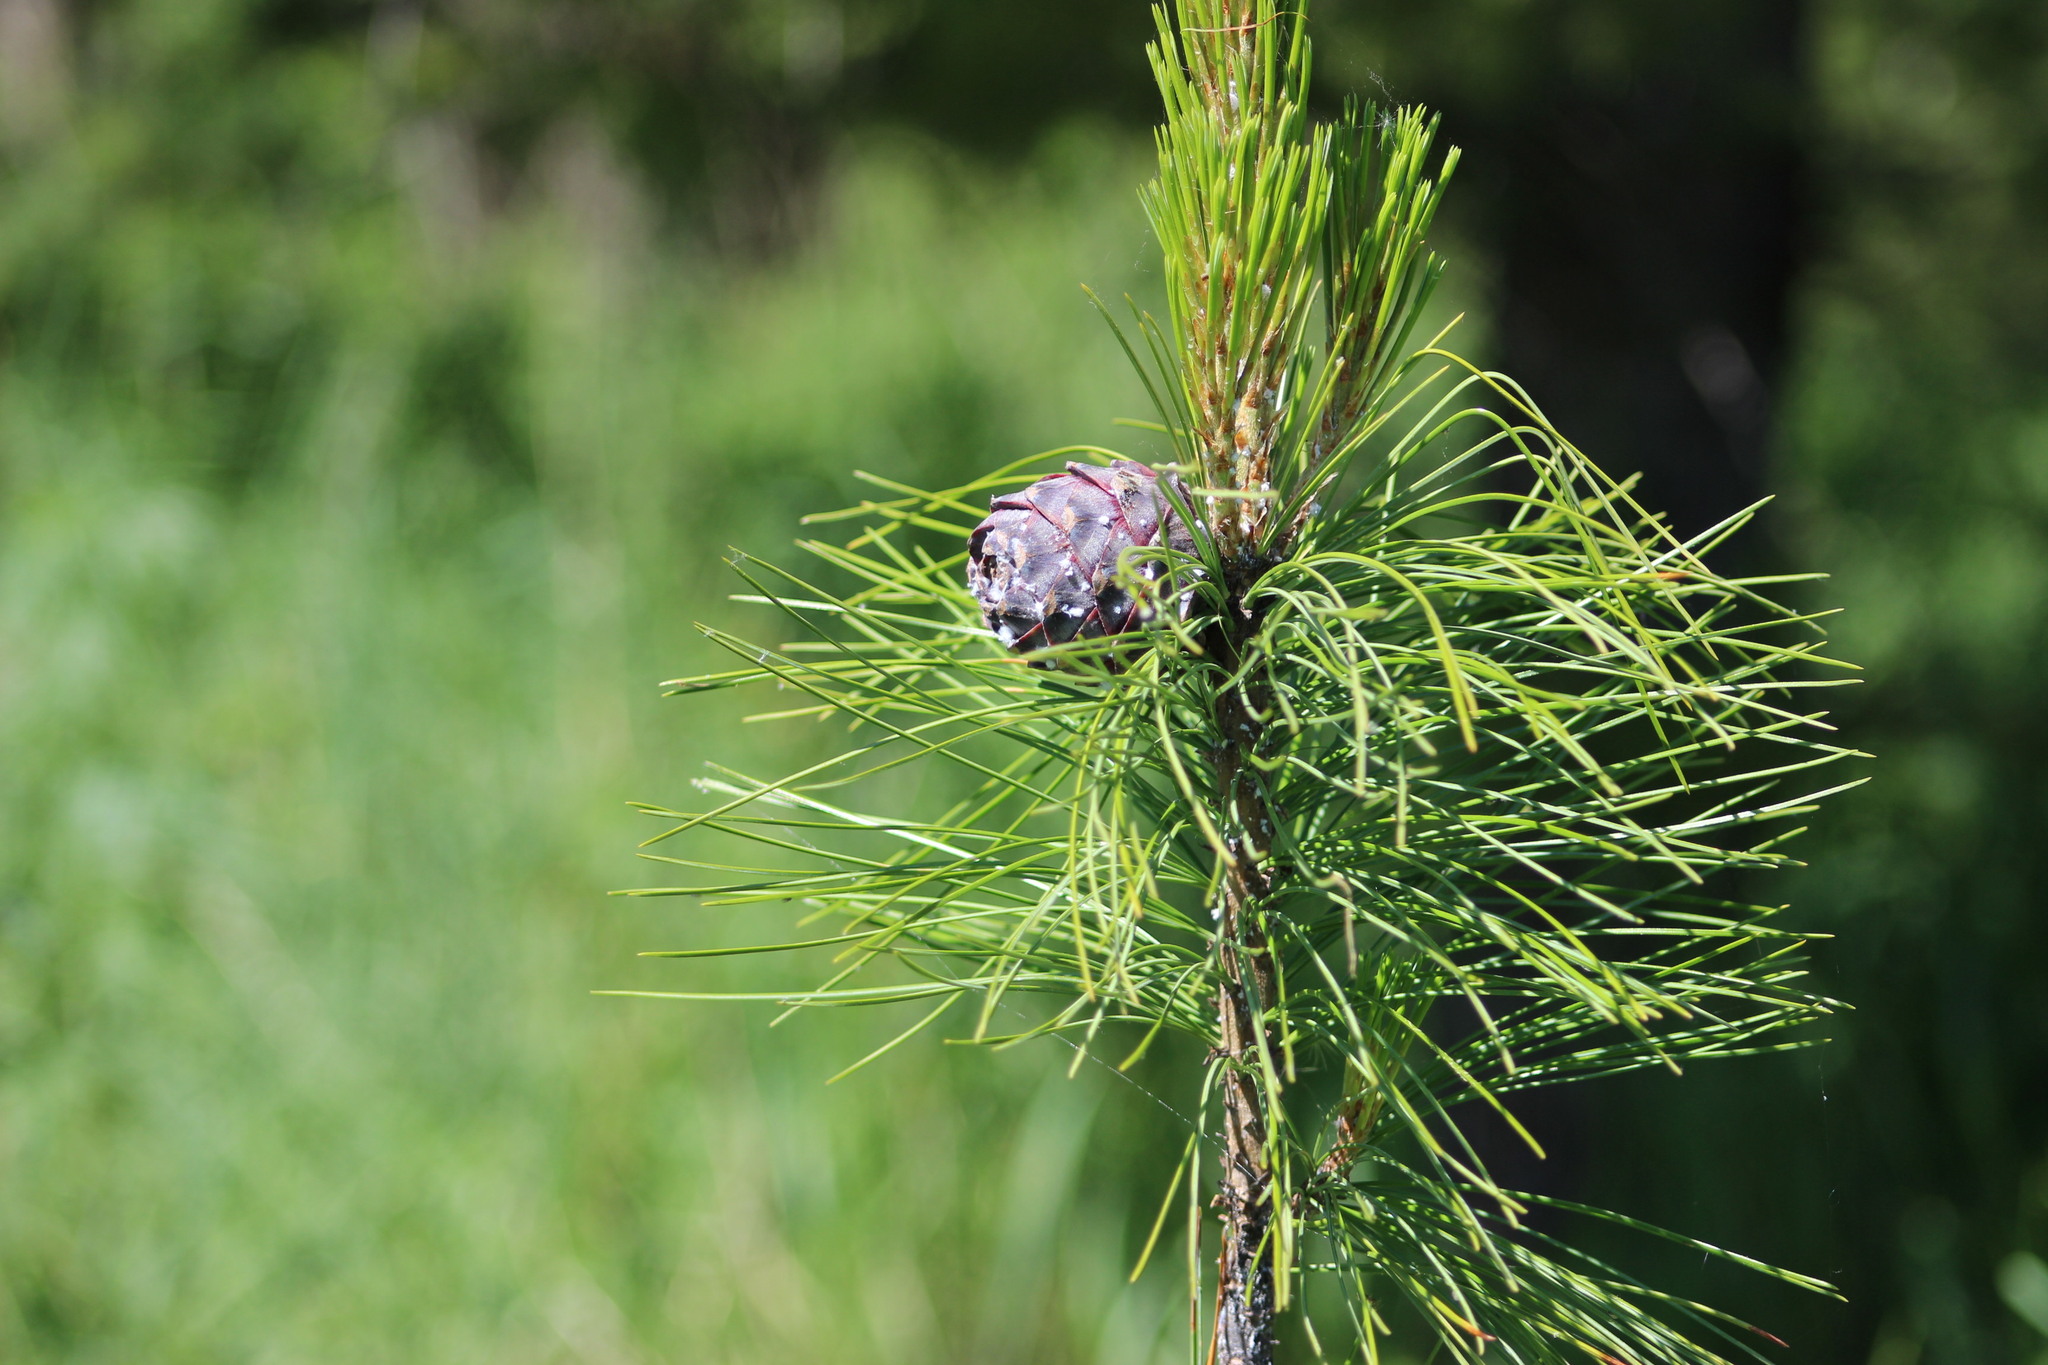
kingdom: Plantae
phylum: Tracheophyta
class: Pinopsida
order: Pinales
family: Pinaceae
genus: Pinus
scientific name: Pinus sibirica
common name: Siberian pine
